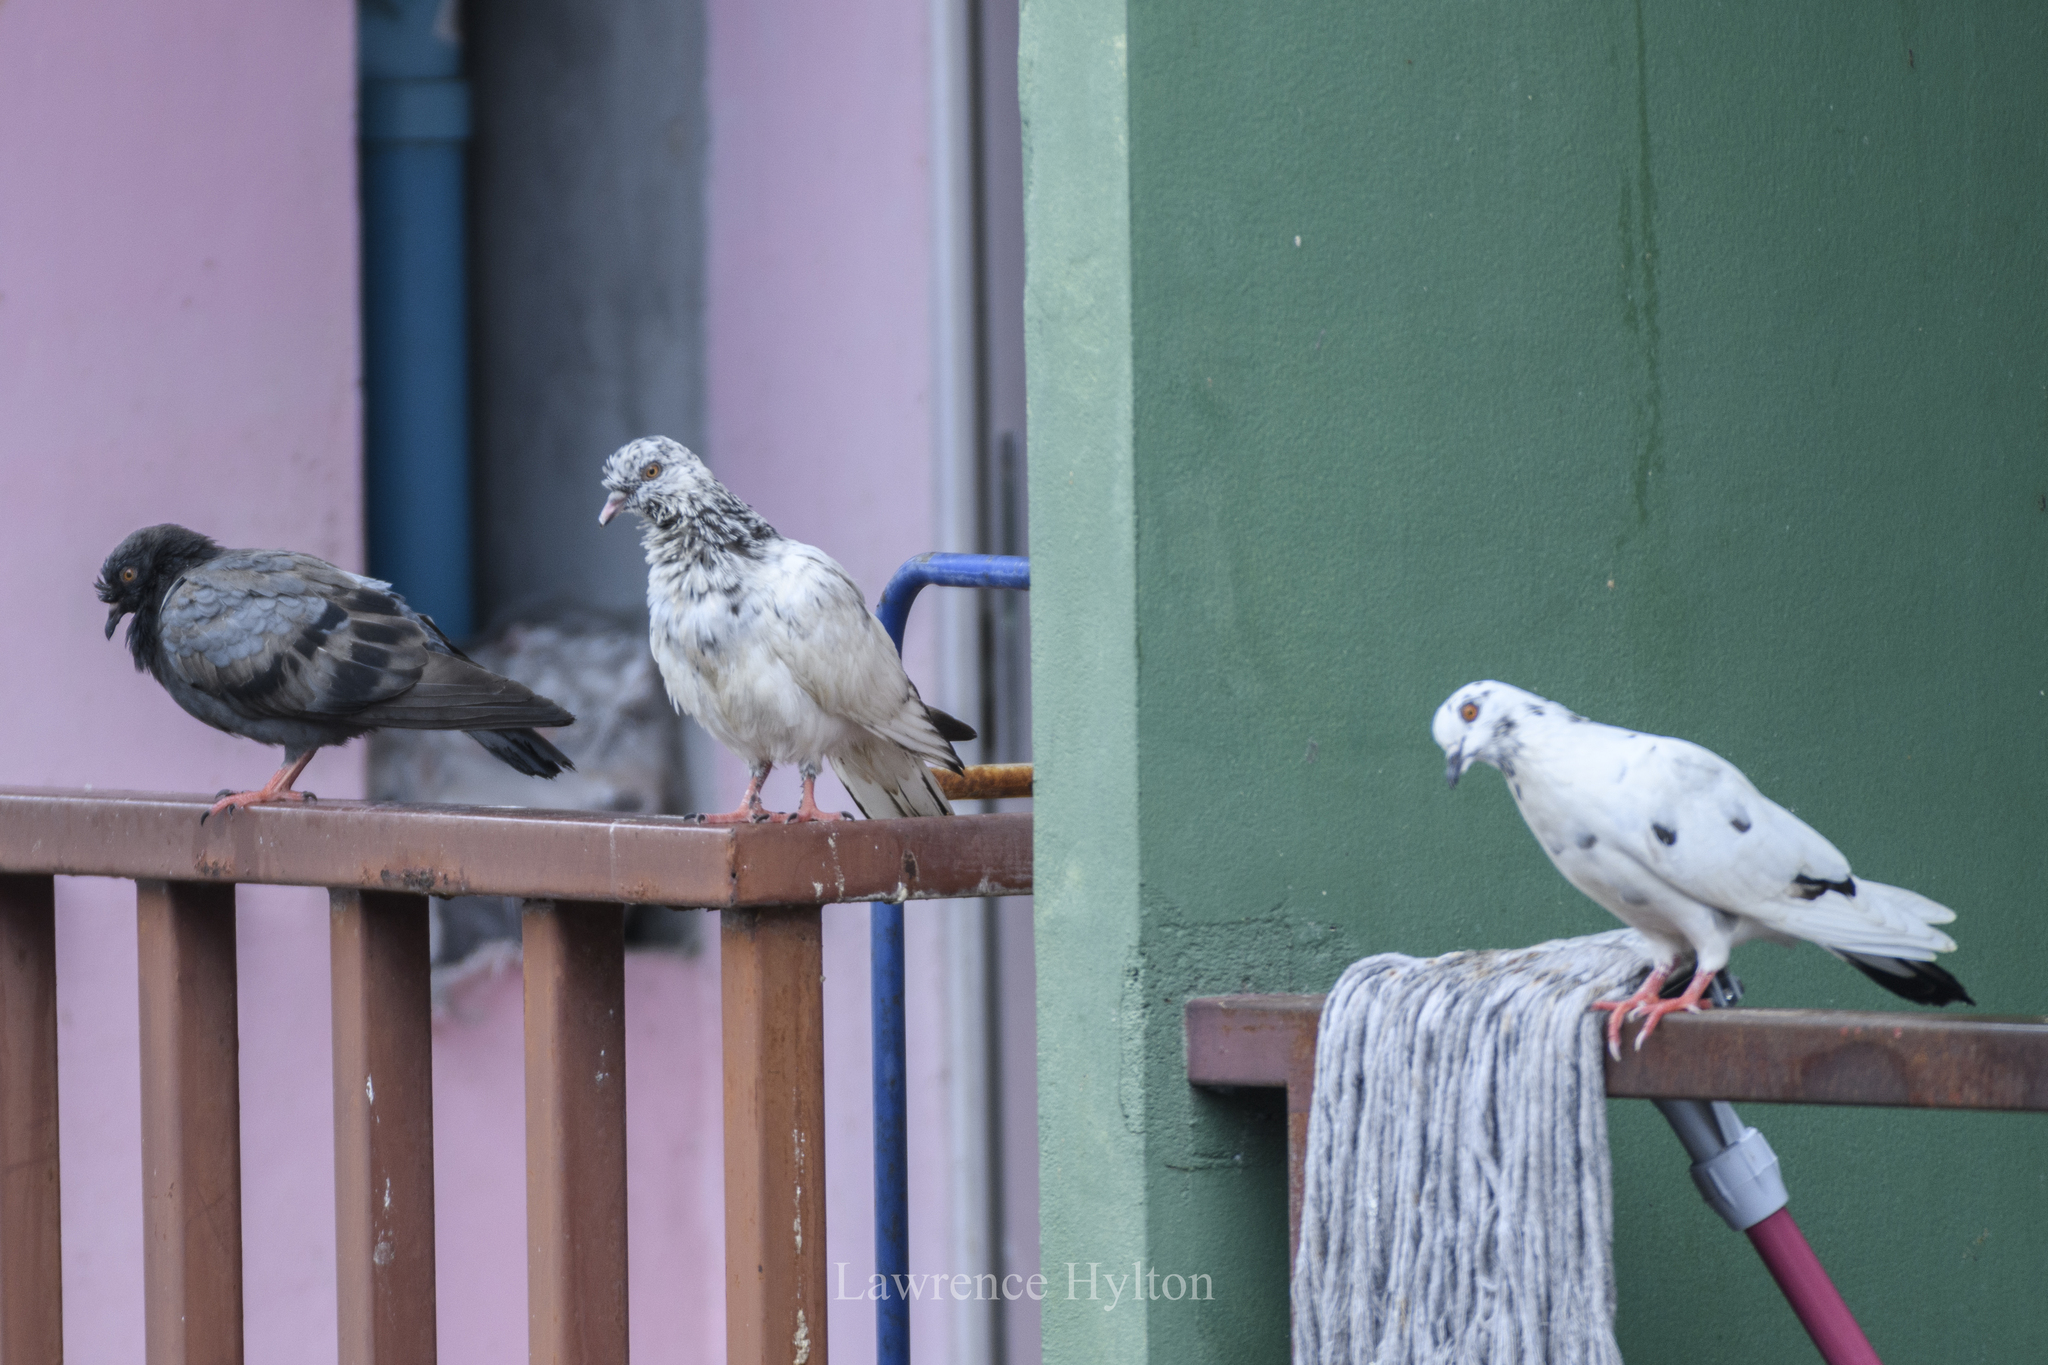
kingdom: Animalia
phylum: Chordata
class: Aves
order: Columbiformes
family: Columbidae
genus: Columba
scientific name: Columba livia
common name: Rock pigeon
